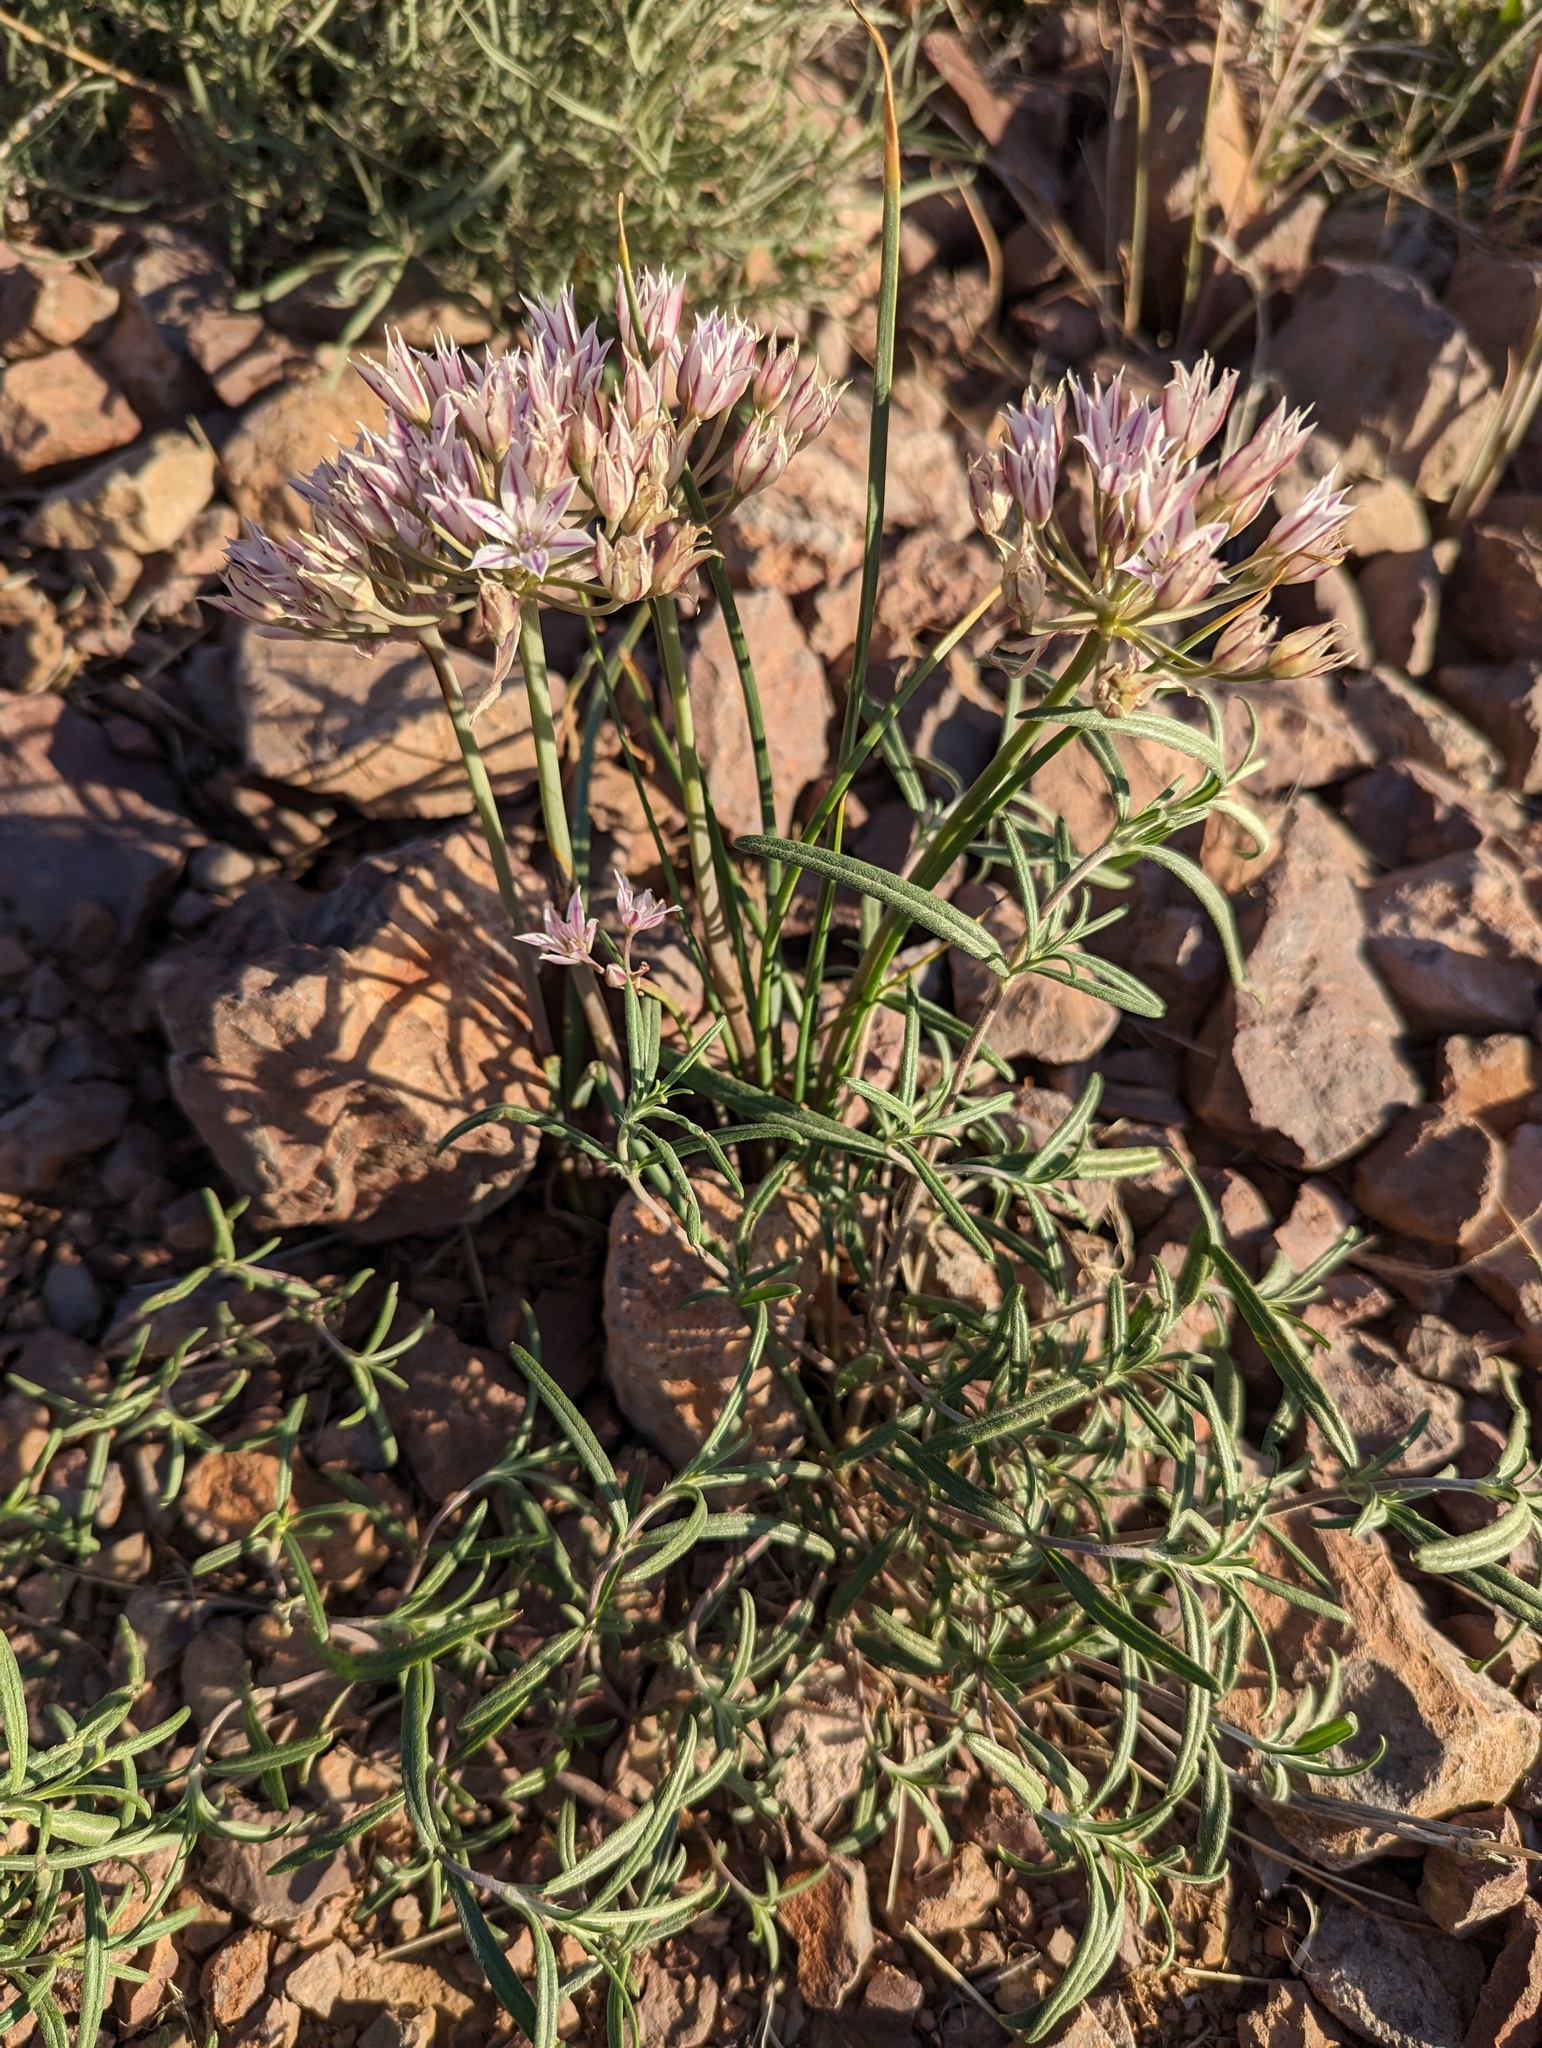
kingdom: Plantae
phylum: Tracheophyta
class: Liliopsida
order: Asparagales
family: Amaryllidaceae
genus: Allium
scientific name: Allium macropetalum
